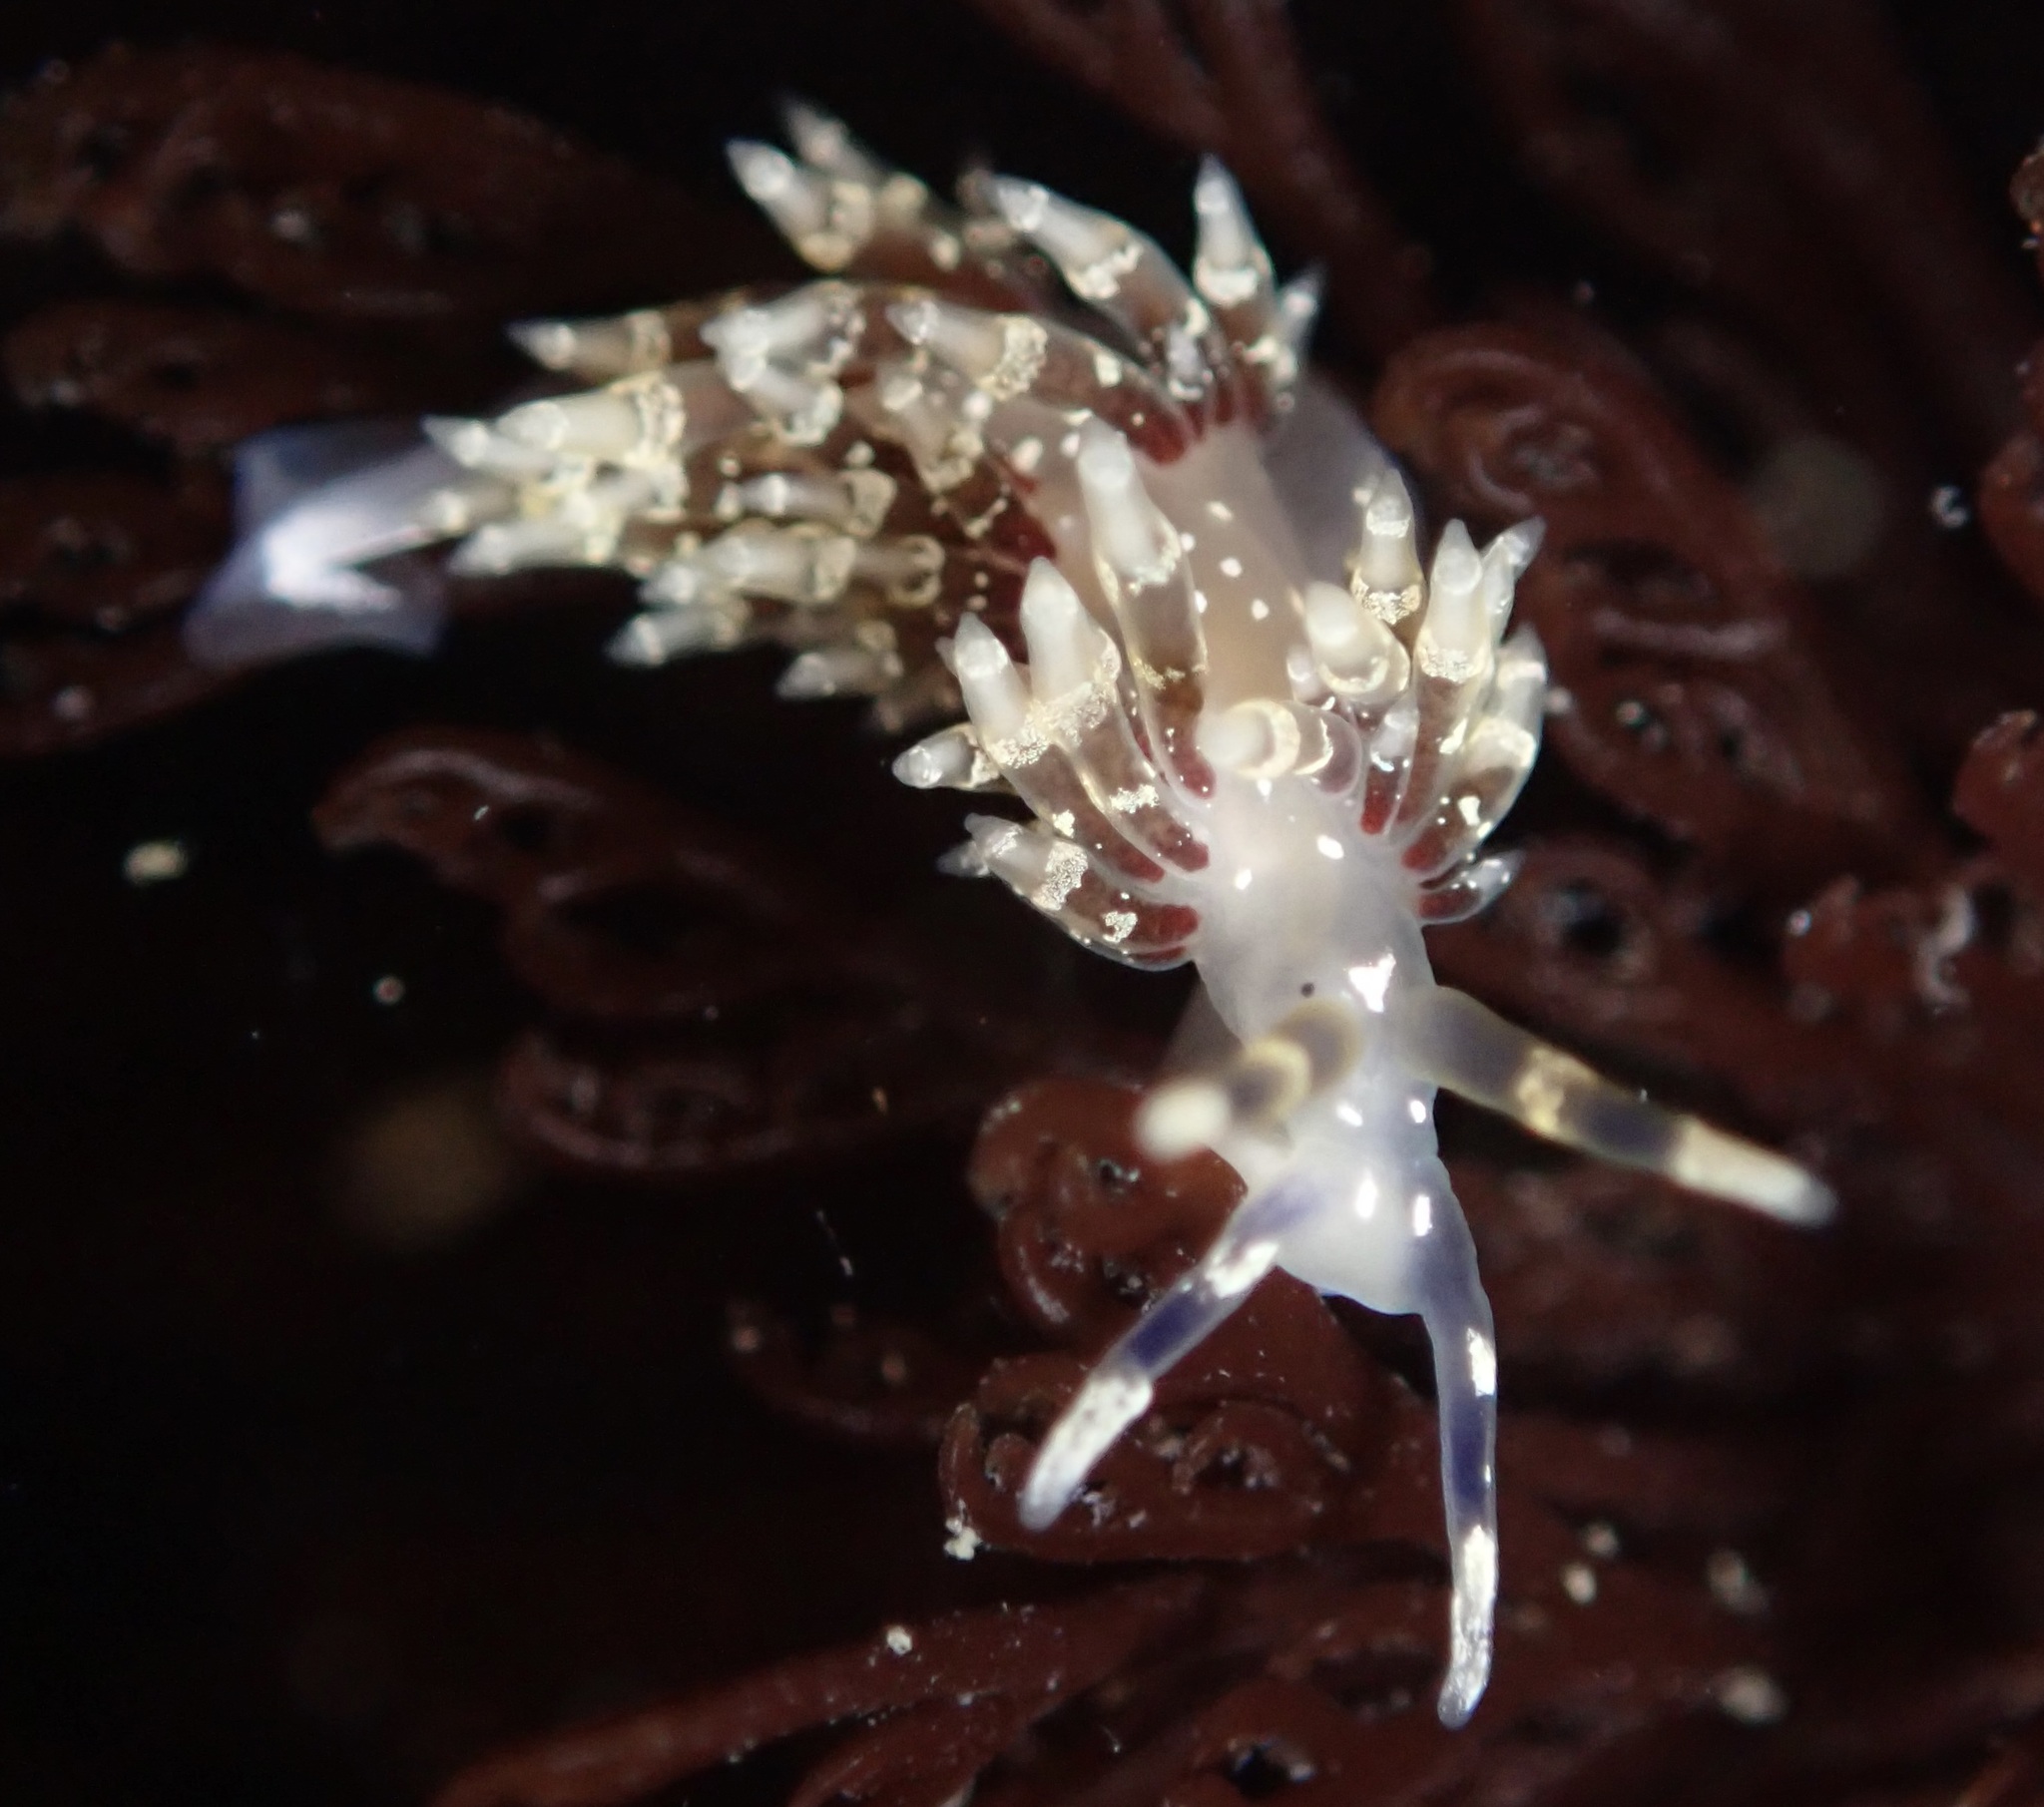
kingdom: Animalia
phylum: Mollusca
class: Gastropoda
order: Nudibranchia
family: Abronicidae
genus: Abronica
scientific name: Abronica abronia
